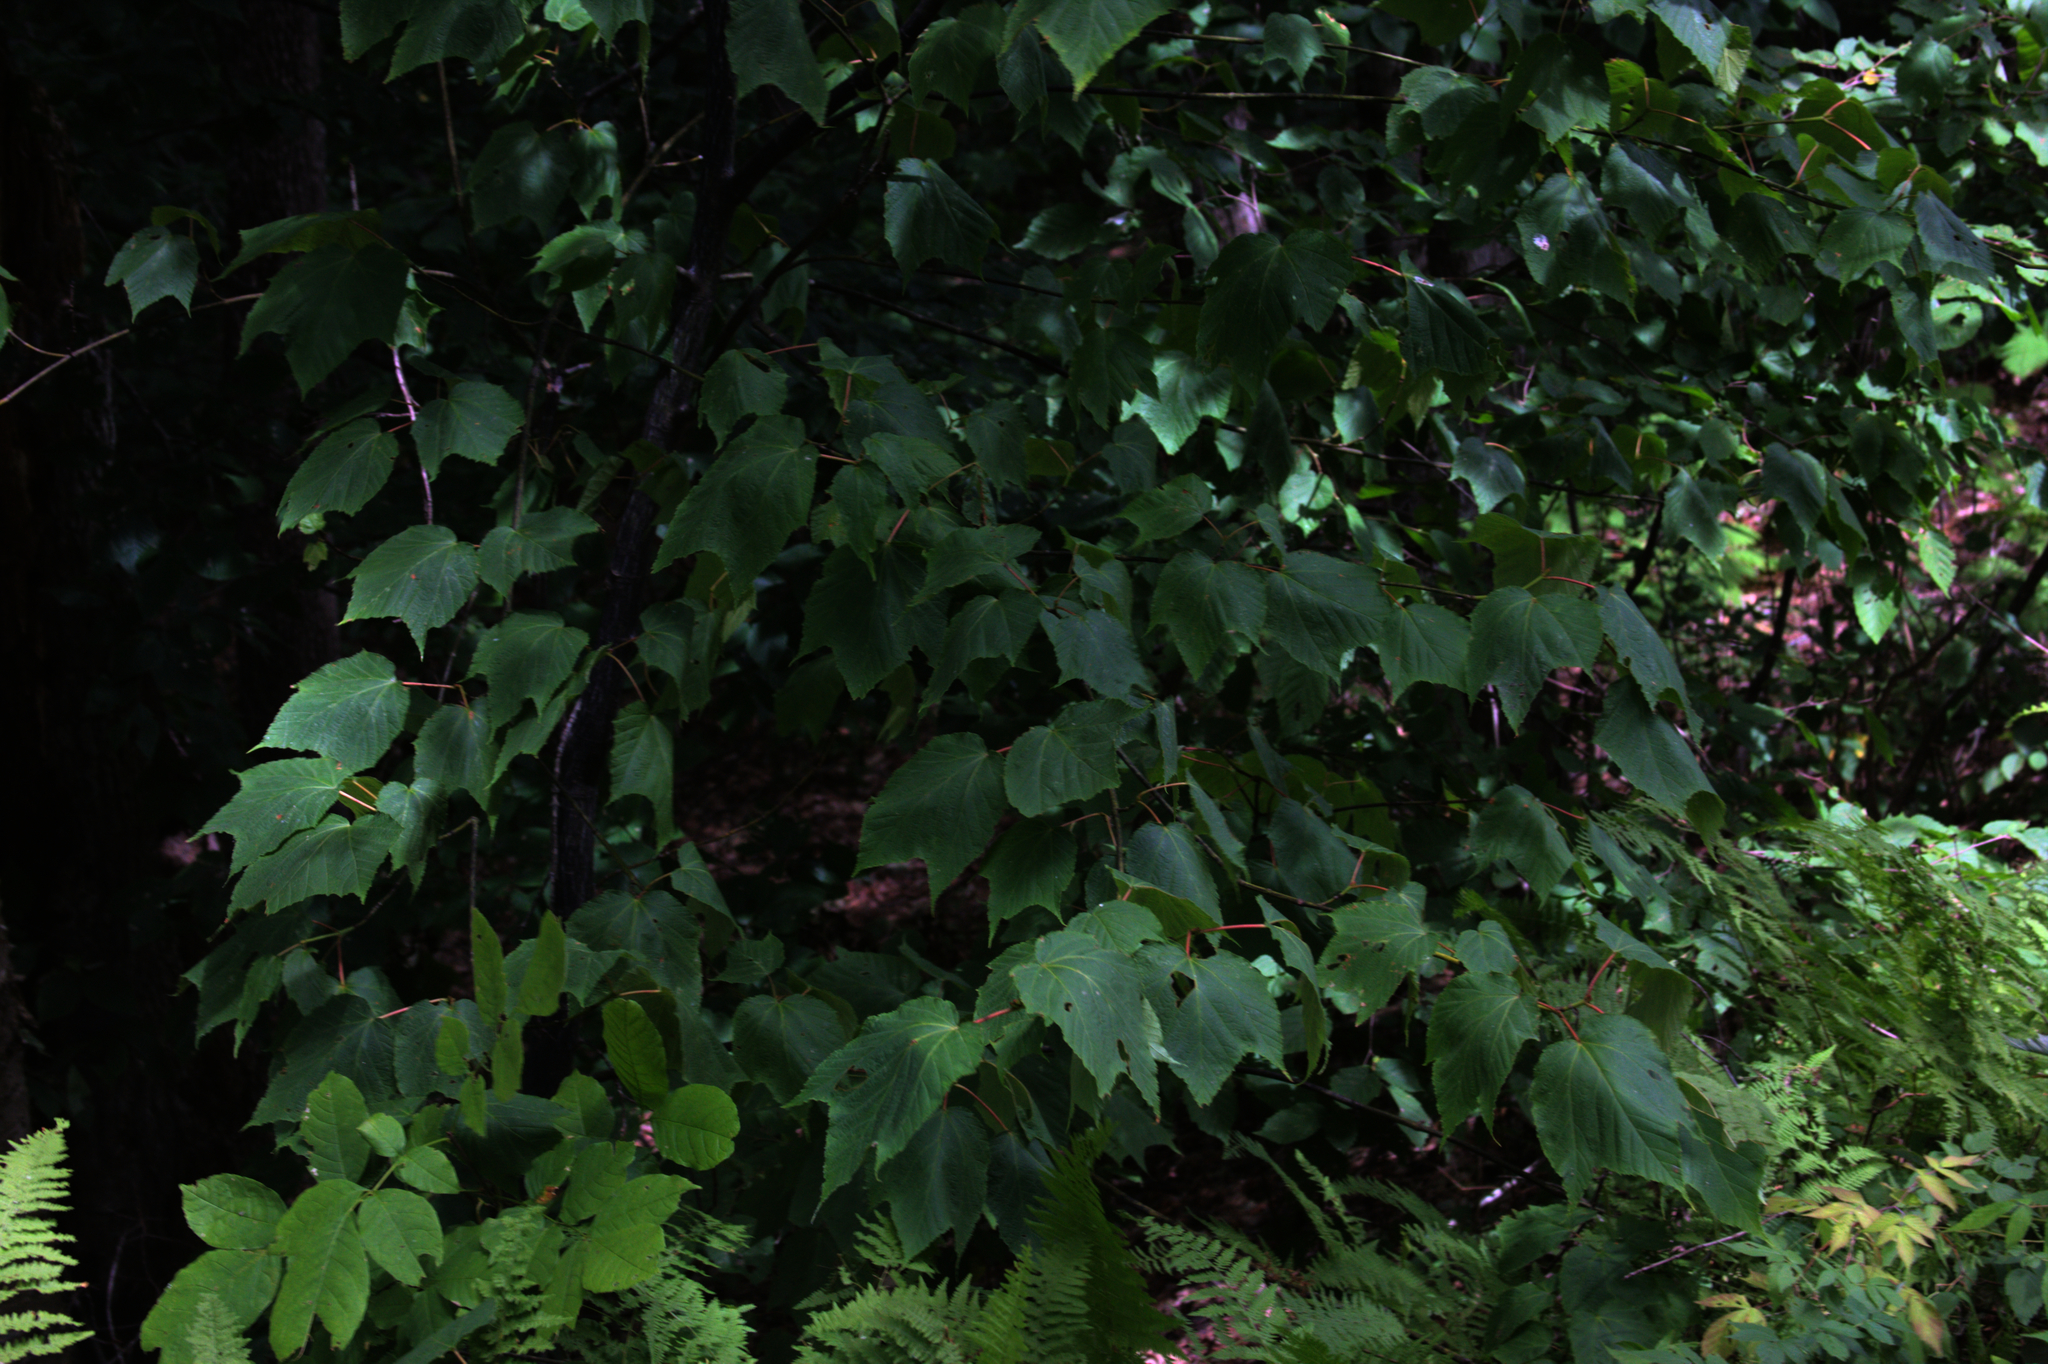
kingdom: Plantae
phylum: Tracheophyta
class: Magnoliopsida
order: Sapindales
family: Sapindaceae
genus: Acer
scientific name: Acer pensylvanicum
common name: Moosewood
